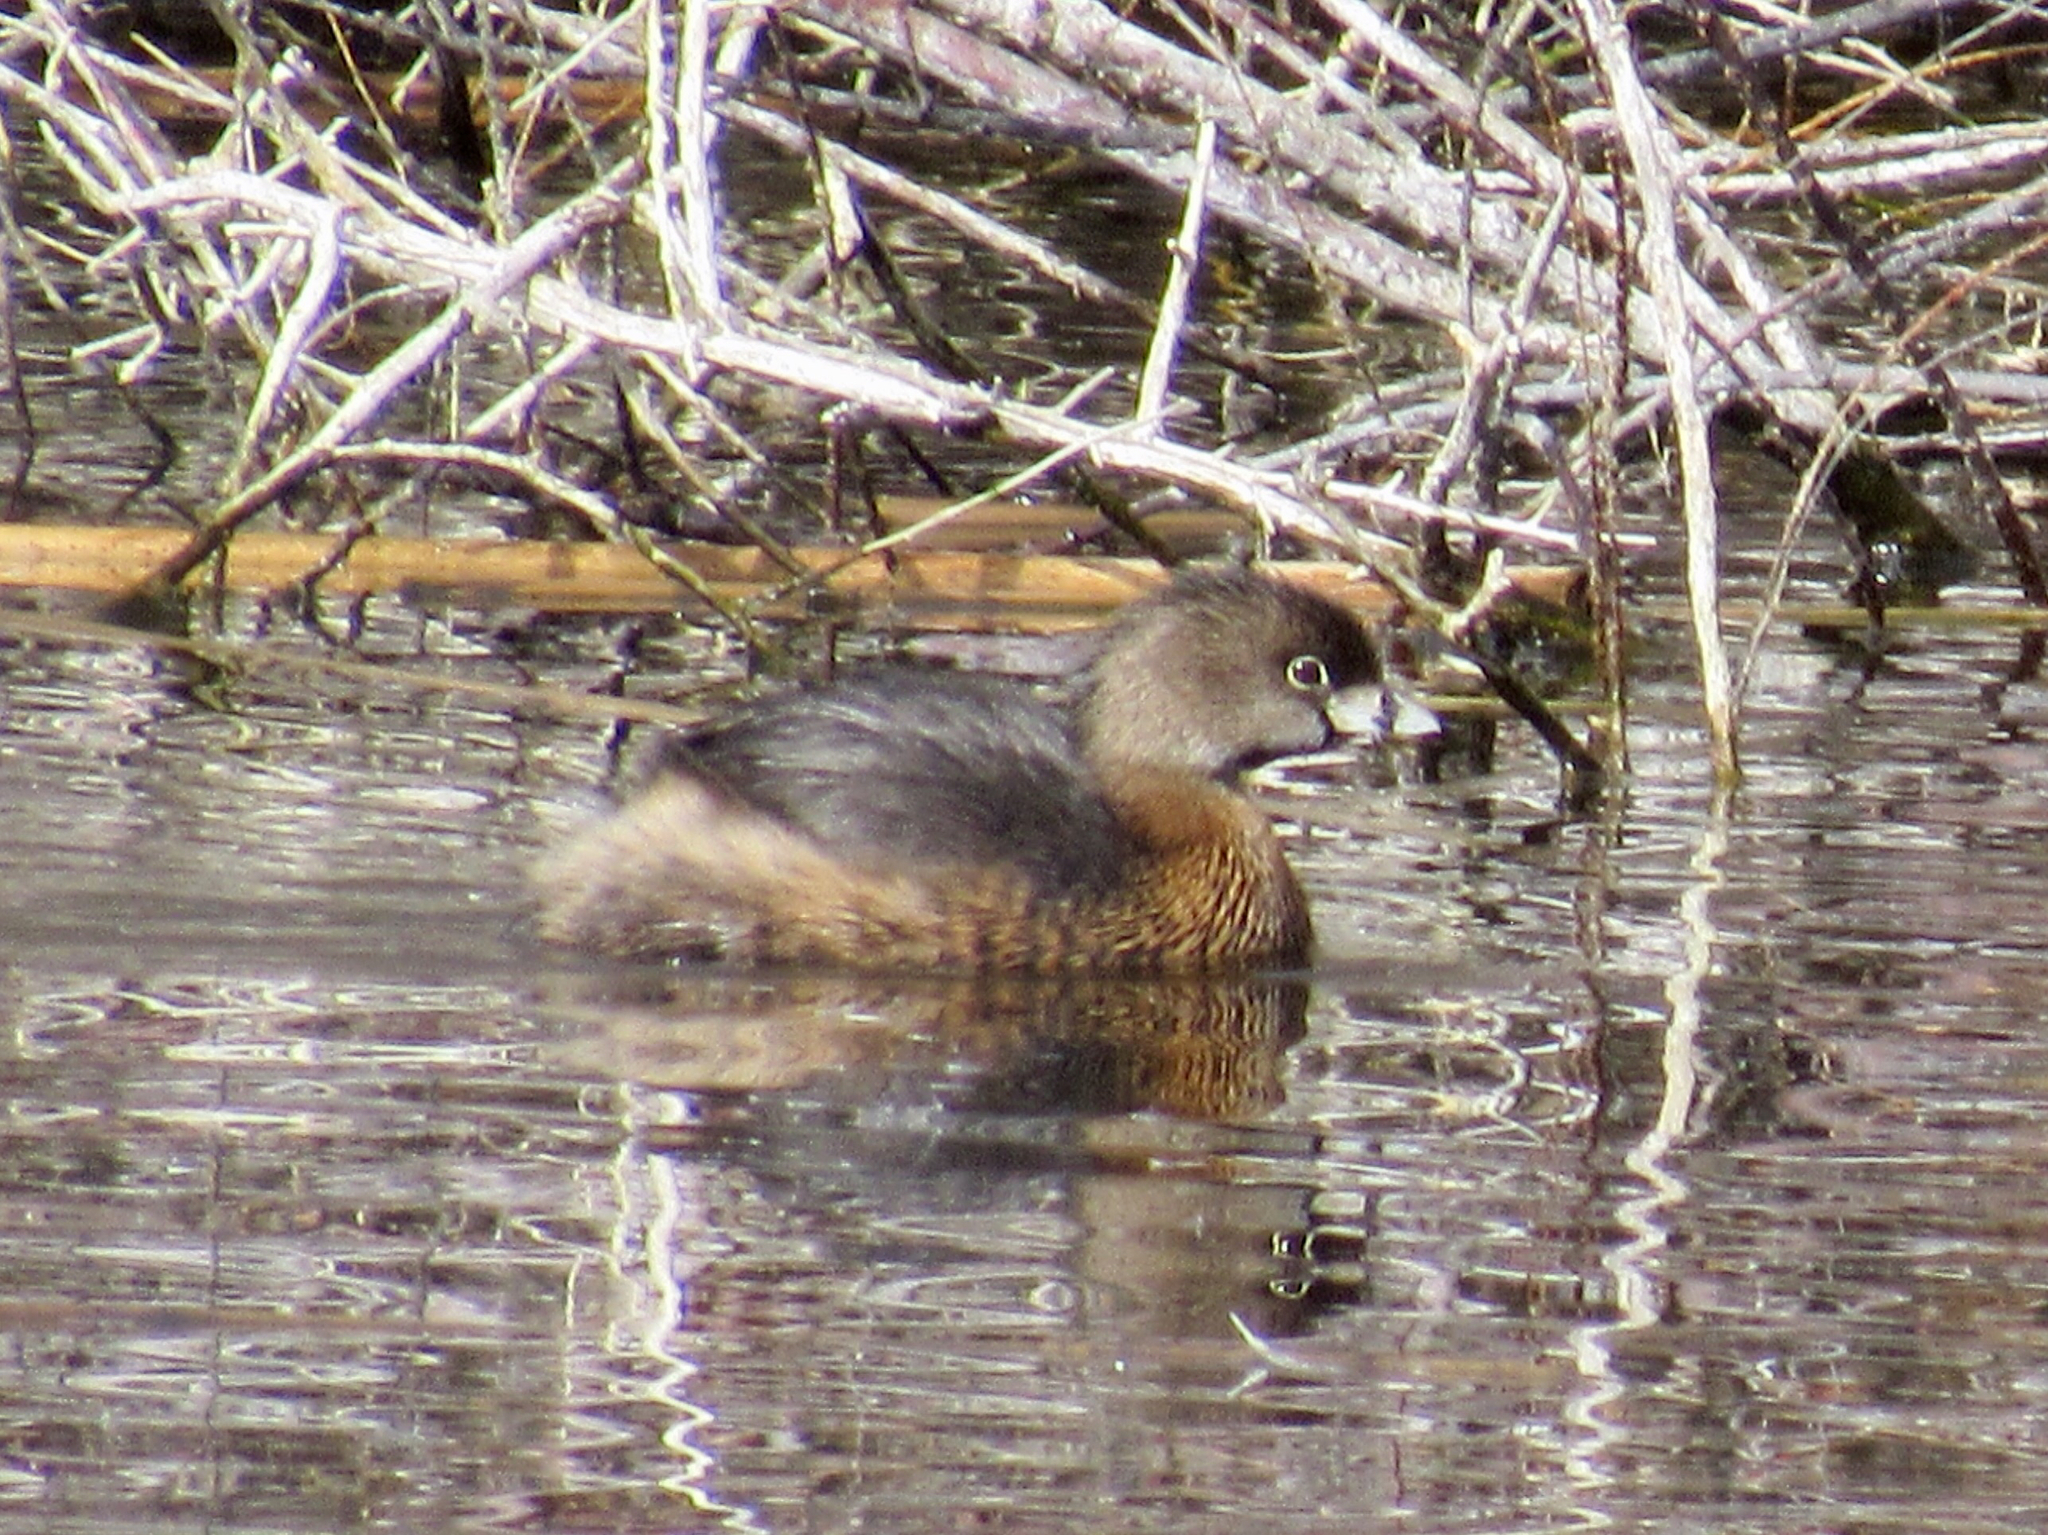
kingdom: Animalia
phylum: Chordata
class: Aves
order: Podicipediformes
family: Podicipedidae
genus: Podilymbus
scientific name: Podilymbus podiceps
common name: Pied-billed grebe
